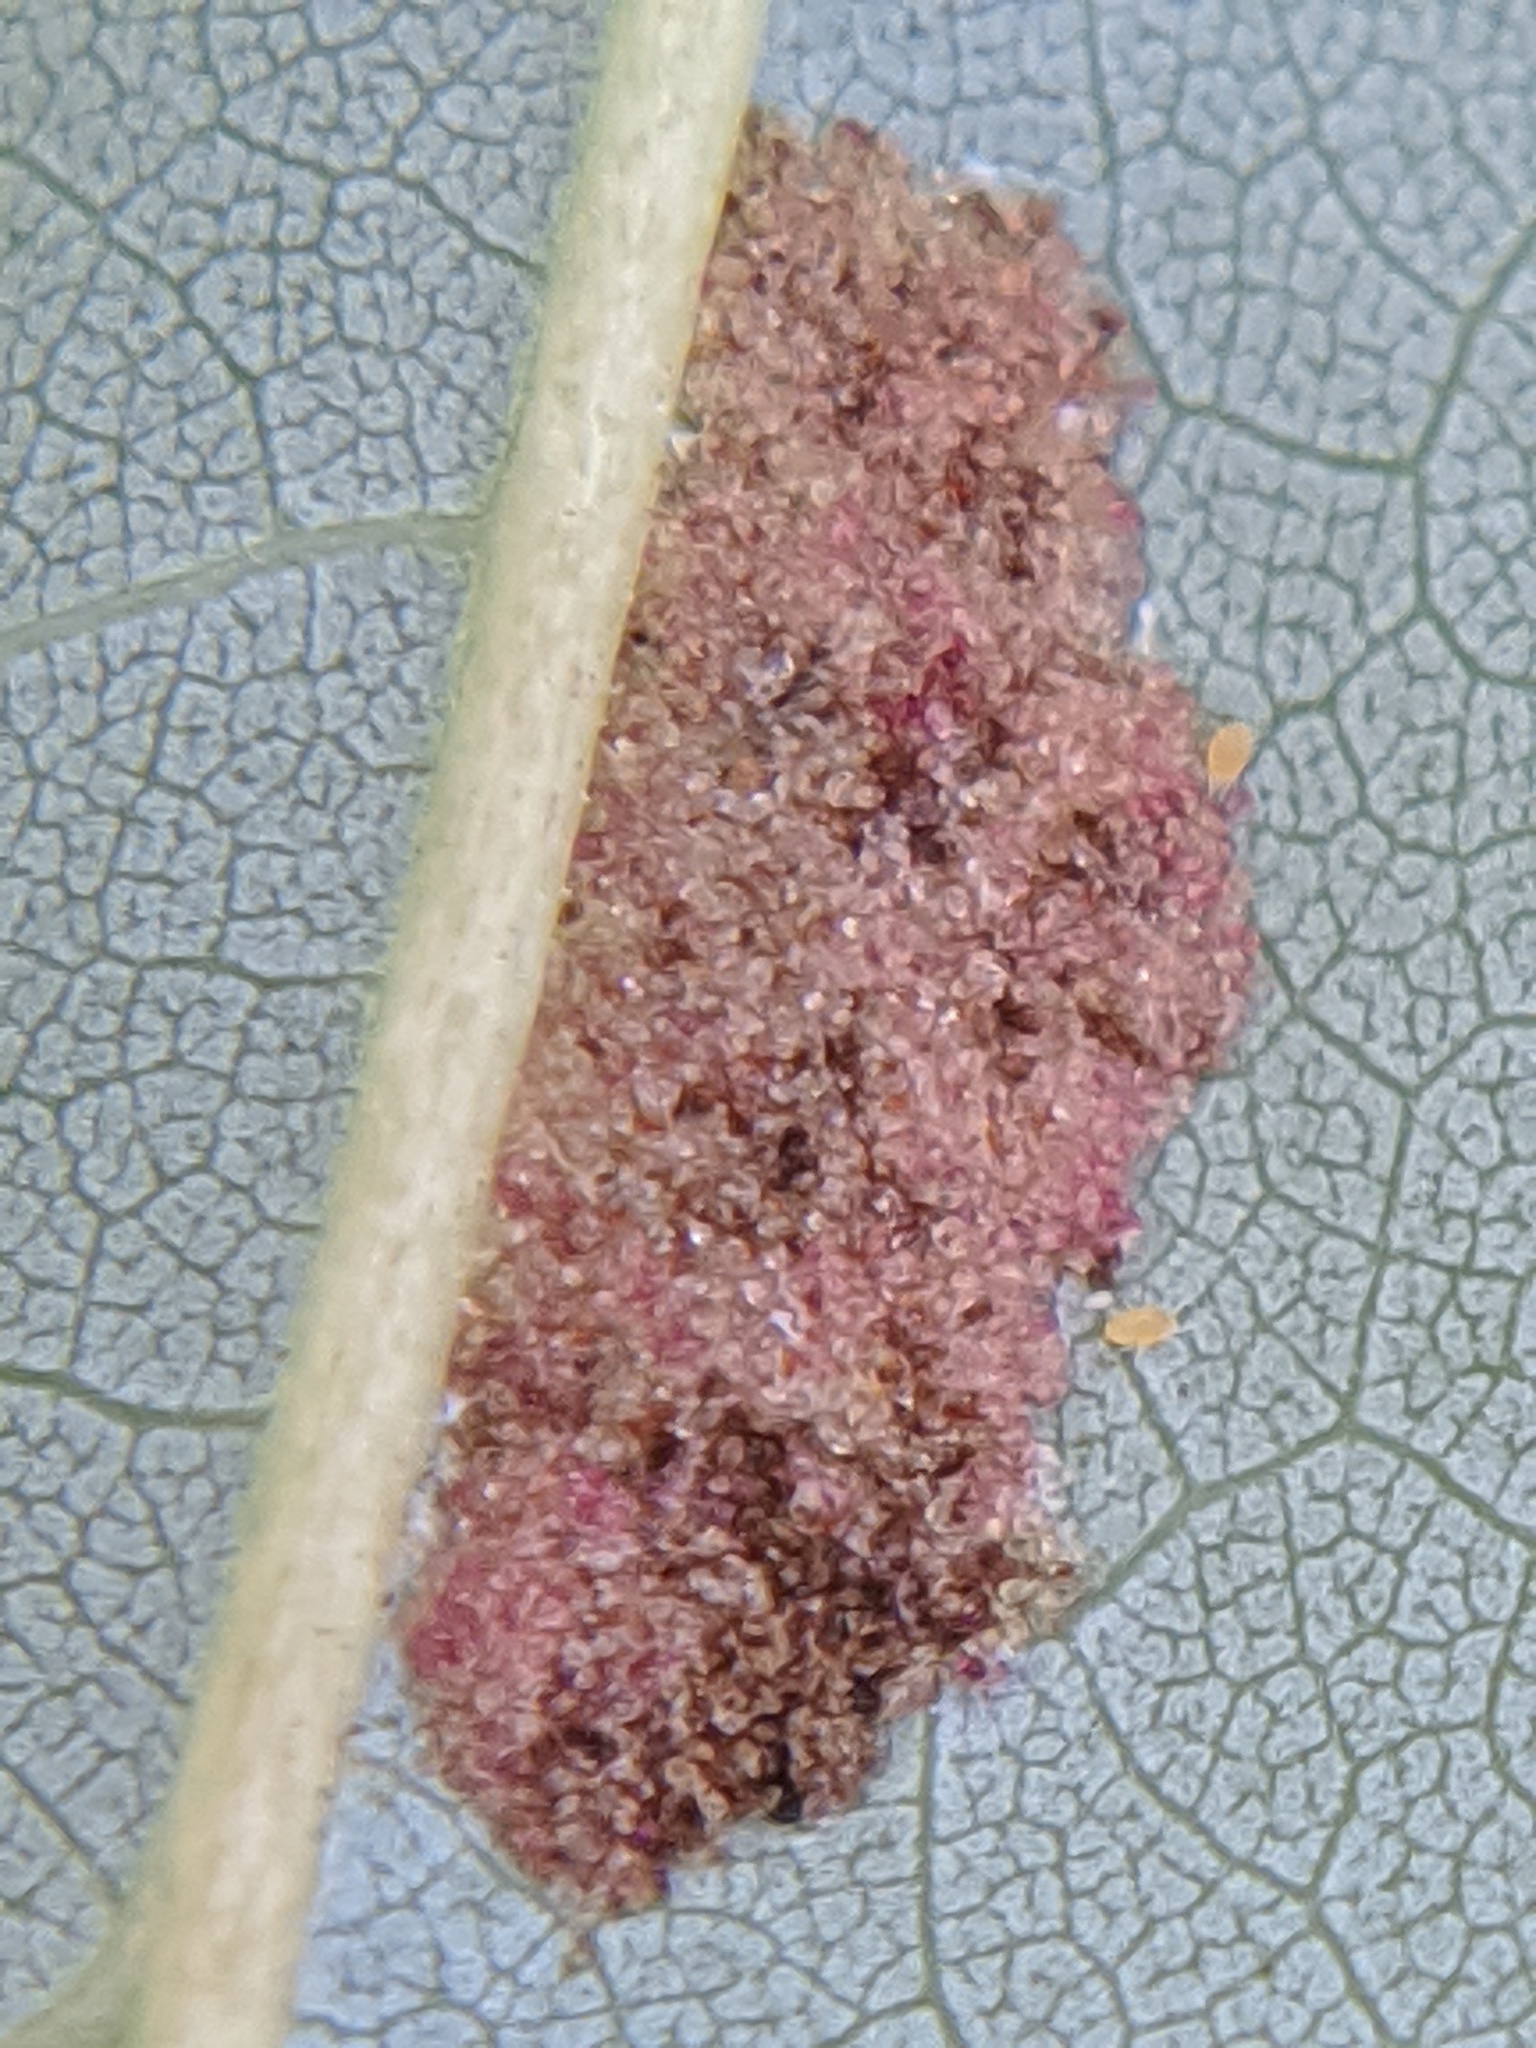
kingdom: Animalia
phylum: Arthropoda
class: Arachnida
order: Trombidiformes
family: Eriophyidae
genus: Eriophyes
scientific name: Eriophyes
